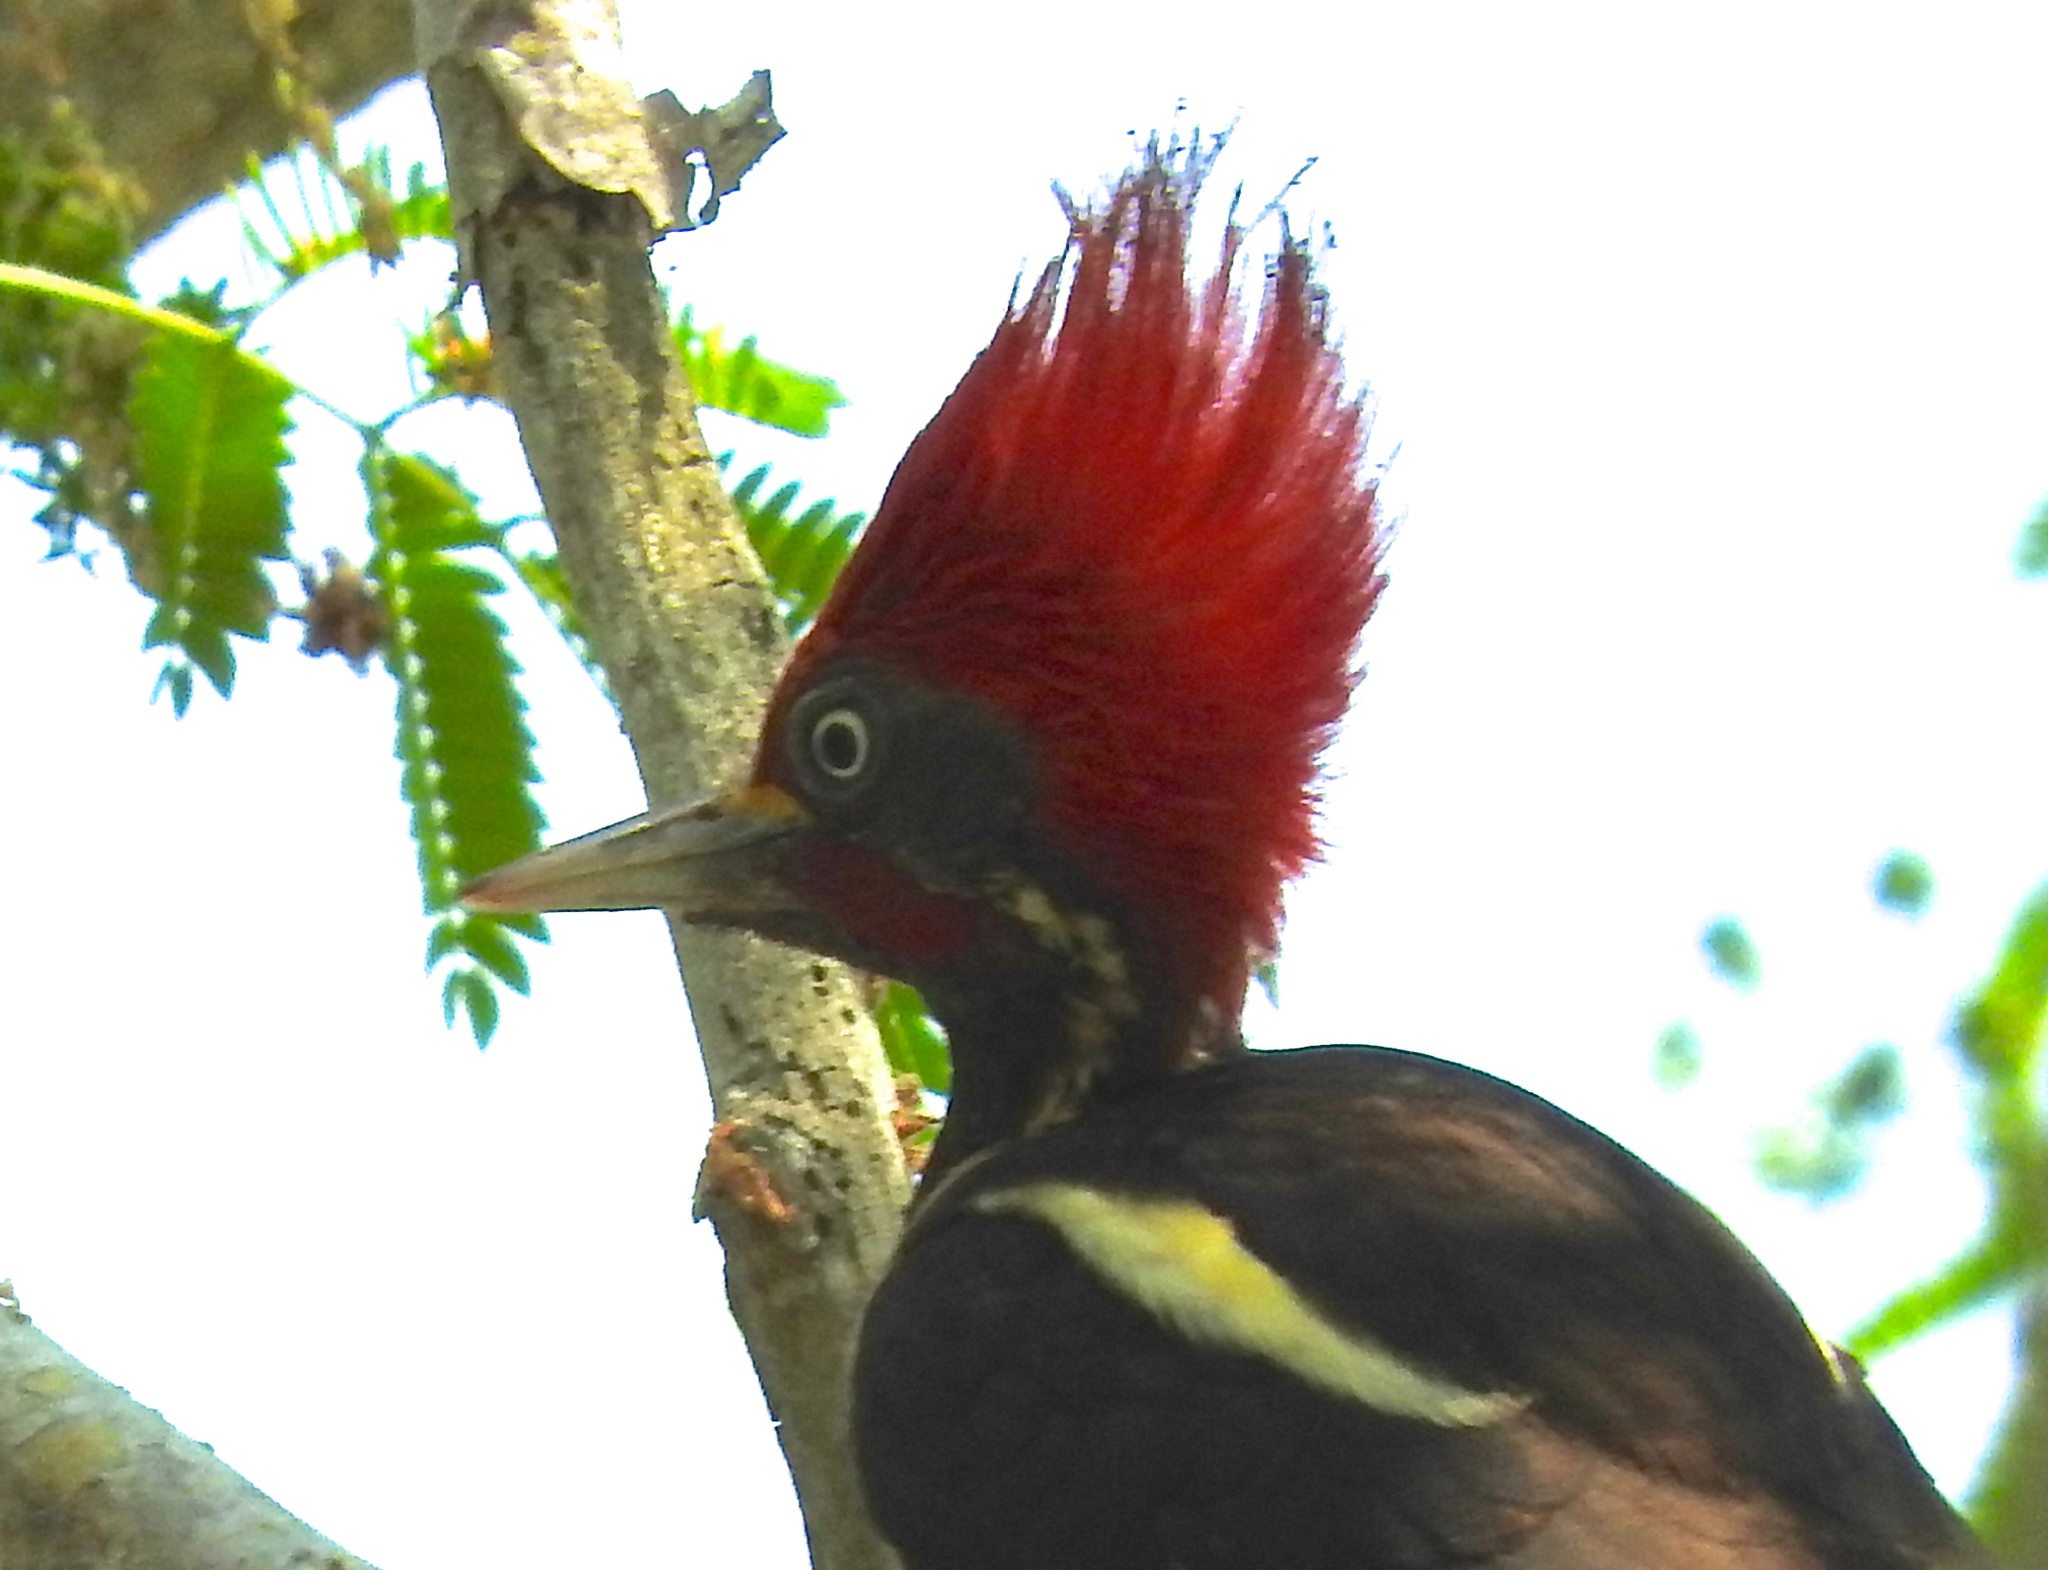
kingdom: Animalia
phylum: Chordata
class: Aves
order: Piciformes
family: Picidae
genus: Dryocopus
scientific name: Dryocopus lineatus
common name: Lineated woodpecker
